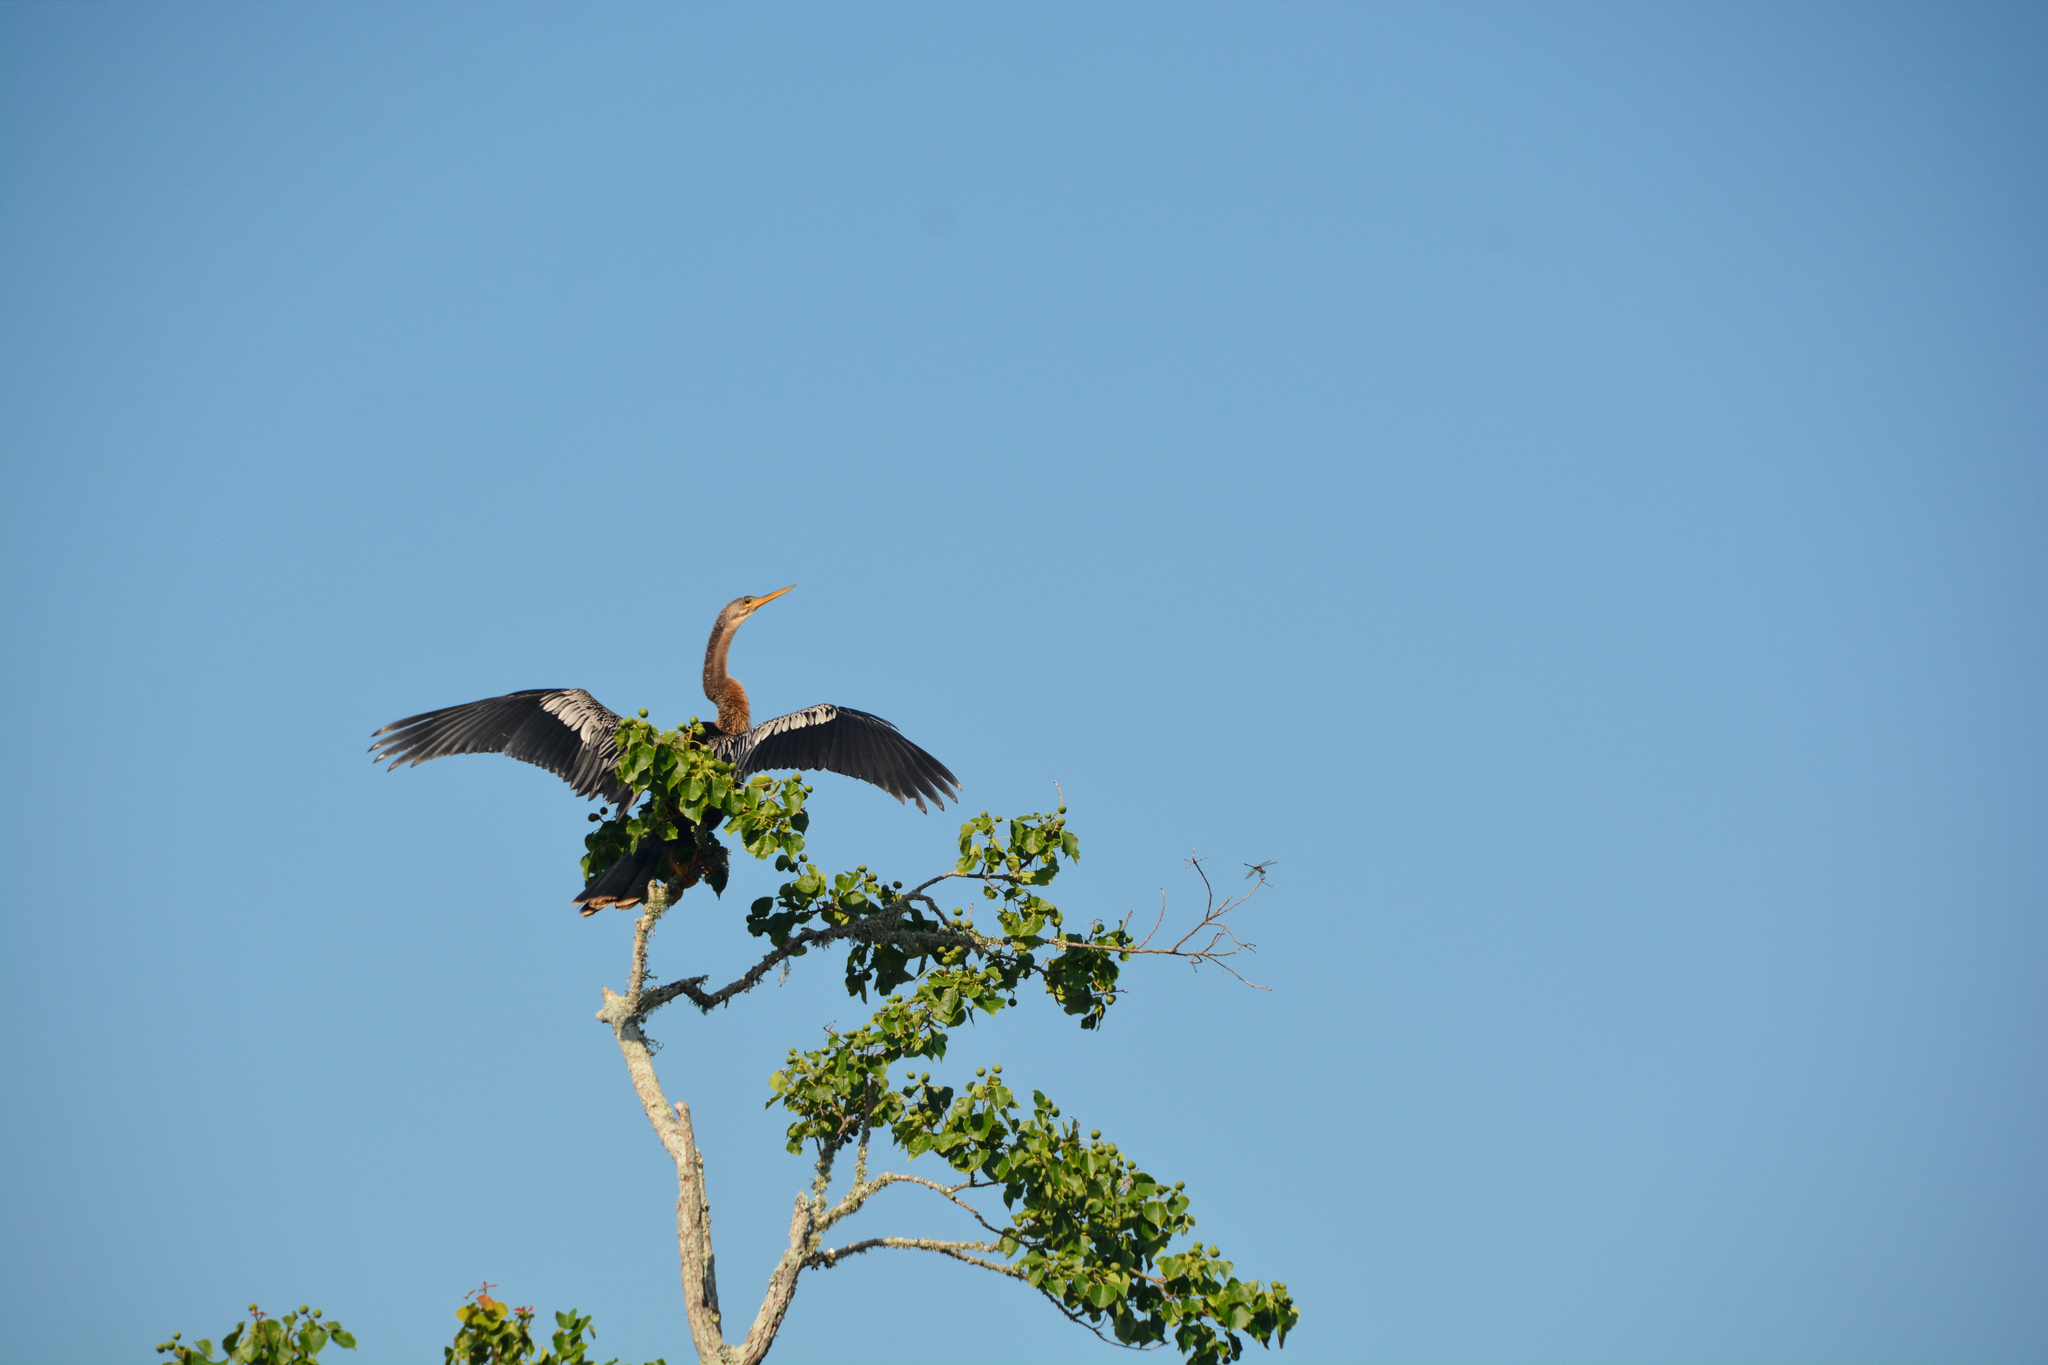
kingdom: Animalia
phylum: Chordata
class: Aves
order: Suliformes
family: Anhingidae
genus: Anhinga
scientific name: Anhinga anhinga
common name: Anhinga
